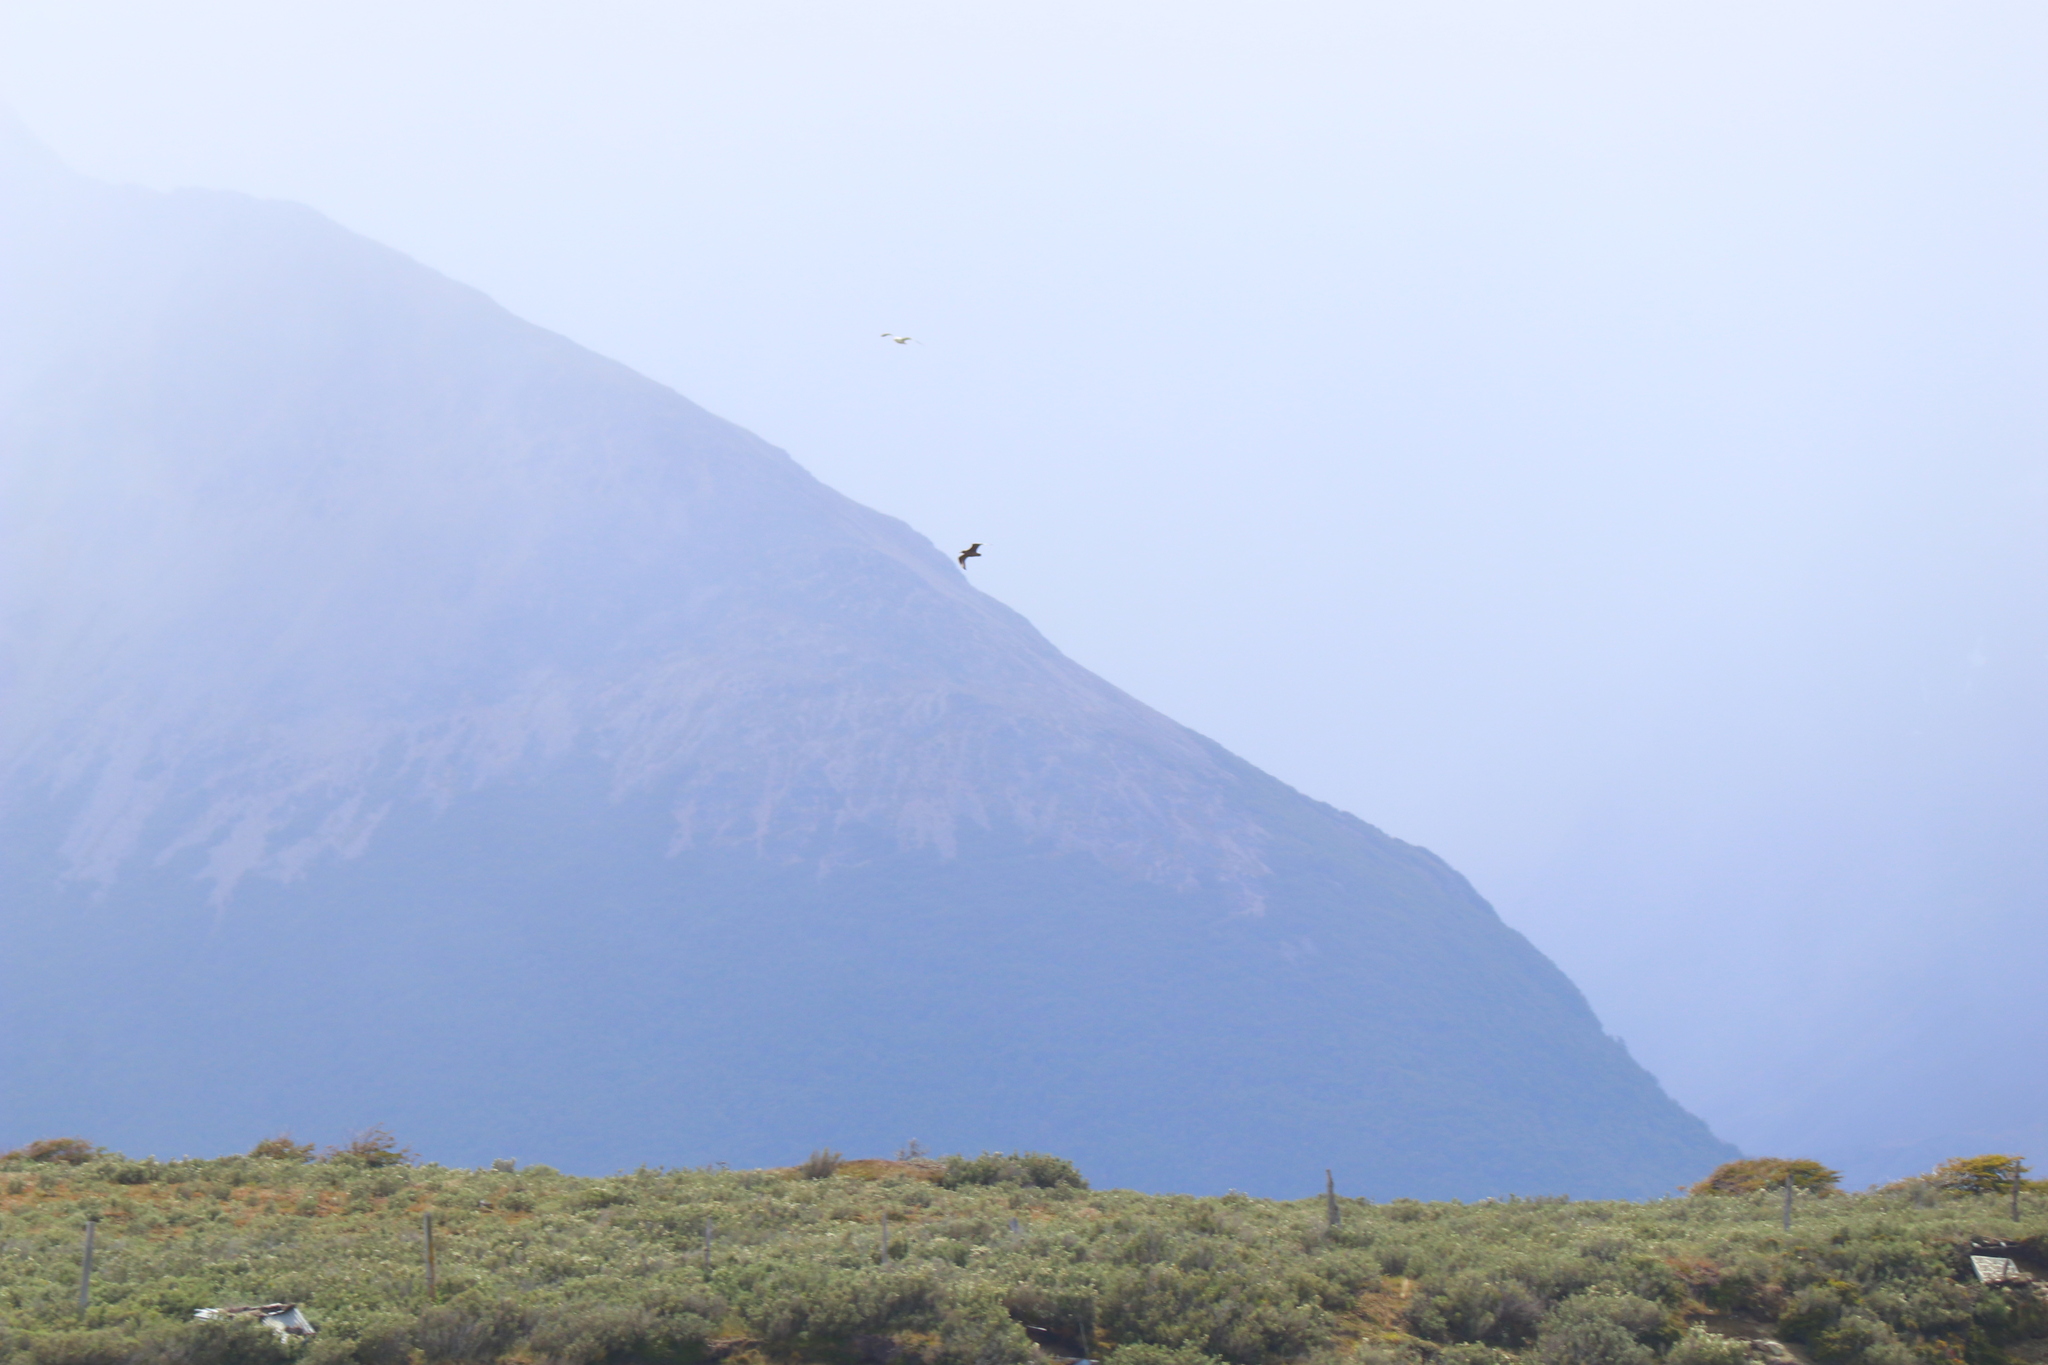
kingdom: Animalia
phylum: Chordata
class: Aves
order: Charadriiformes
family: Stercorariidae
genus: Stercorarius
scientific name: Stercorarius chilensis
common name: Chilean skua
